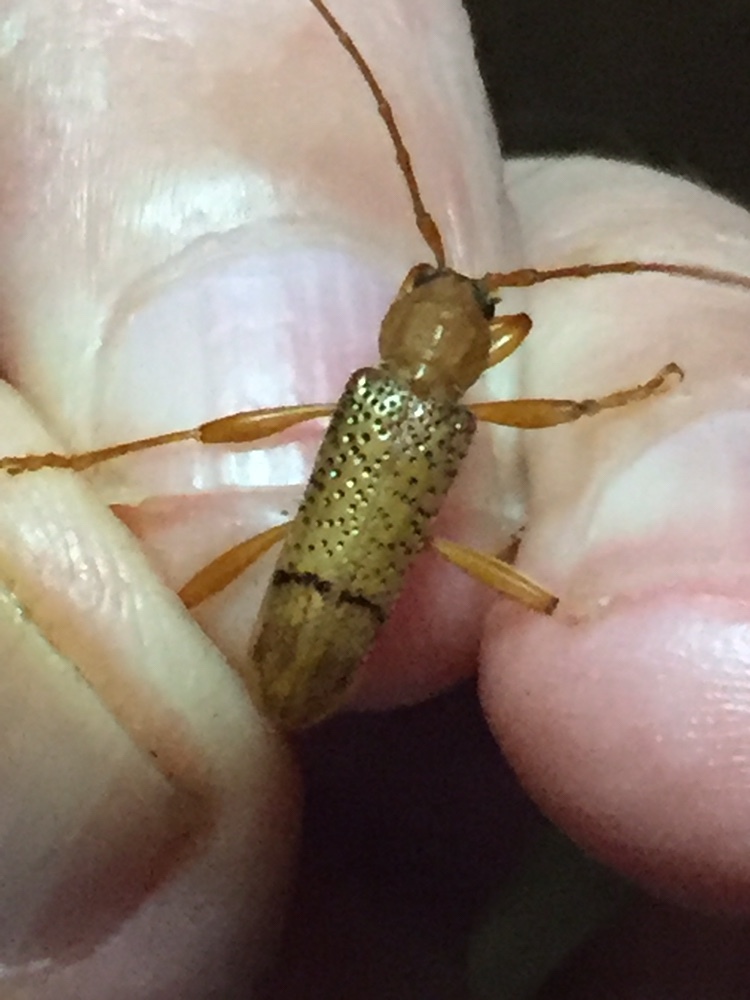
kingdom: Animalia
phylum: Arthropoda
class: Insecta
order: Coleoptera
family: Cerambycidae
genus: Xuthodes
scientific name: Xuthodes punctipennis
